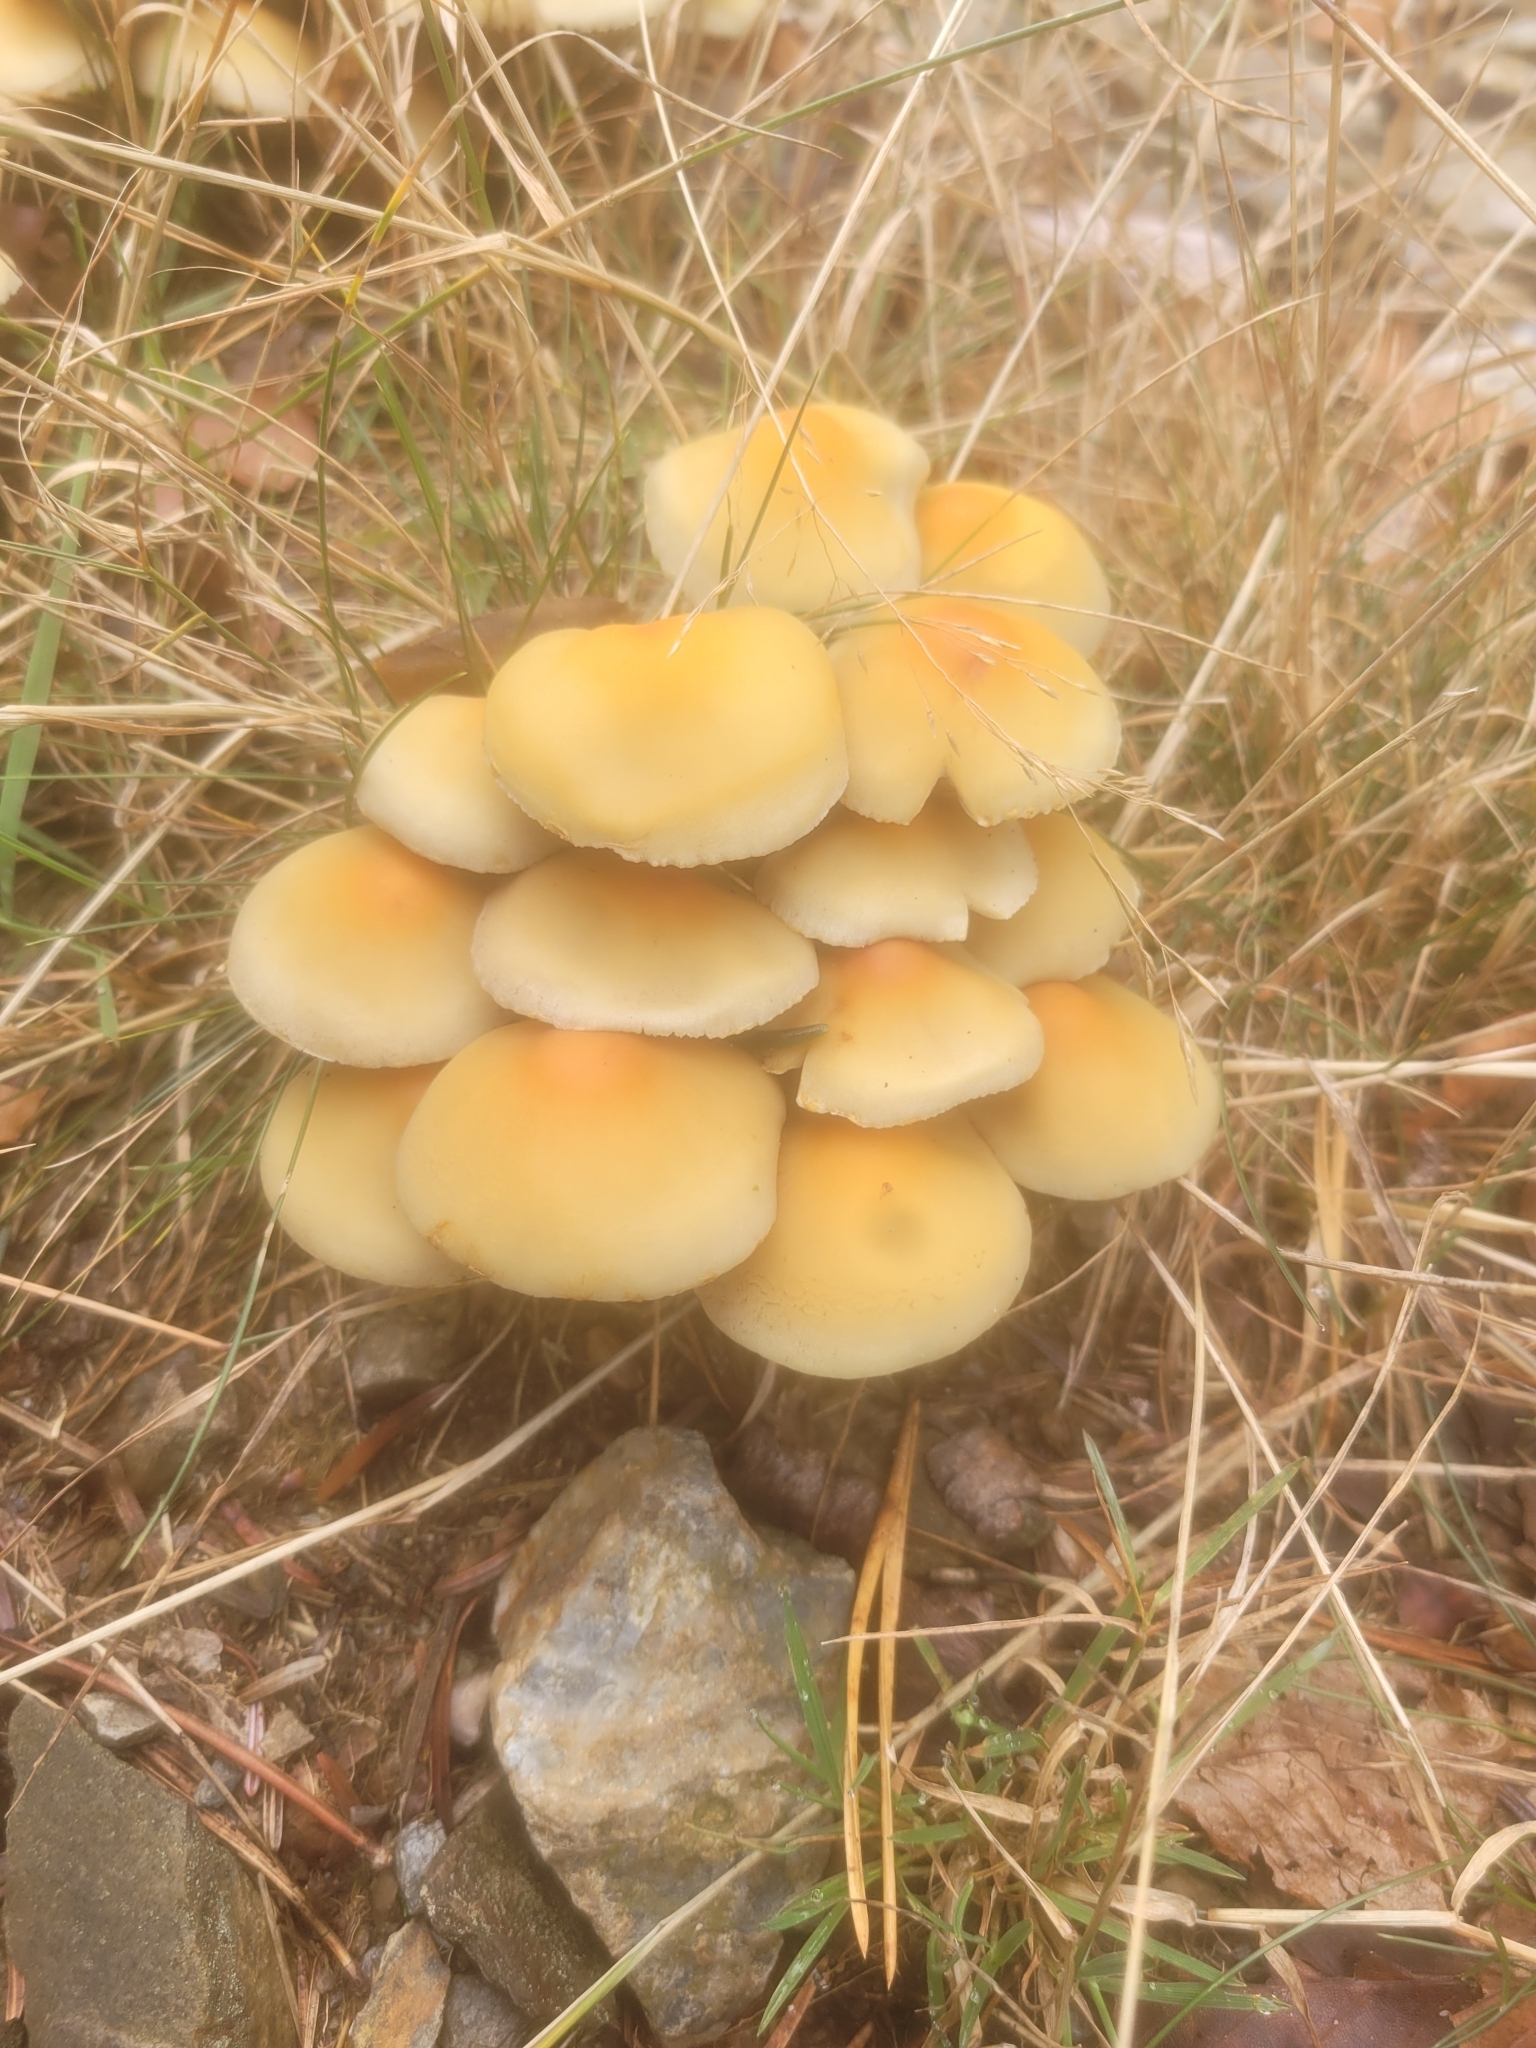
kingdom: Fungi
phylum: Basidiomycota
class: Agaricomycetes
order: Agaricales
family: Strophariaceae
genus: Hypholoma
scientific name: Hypholoma fasciculare
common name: Sulphur tuft
